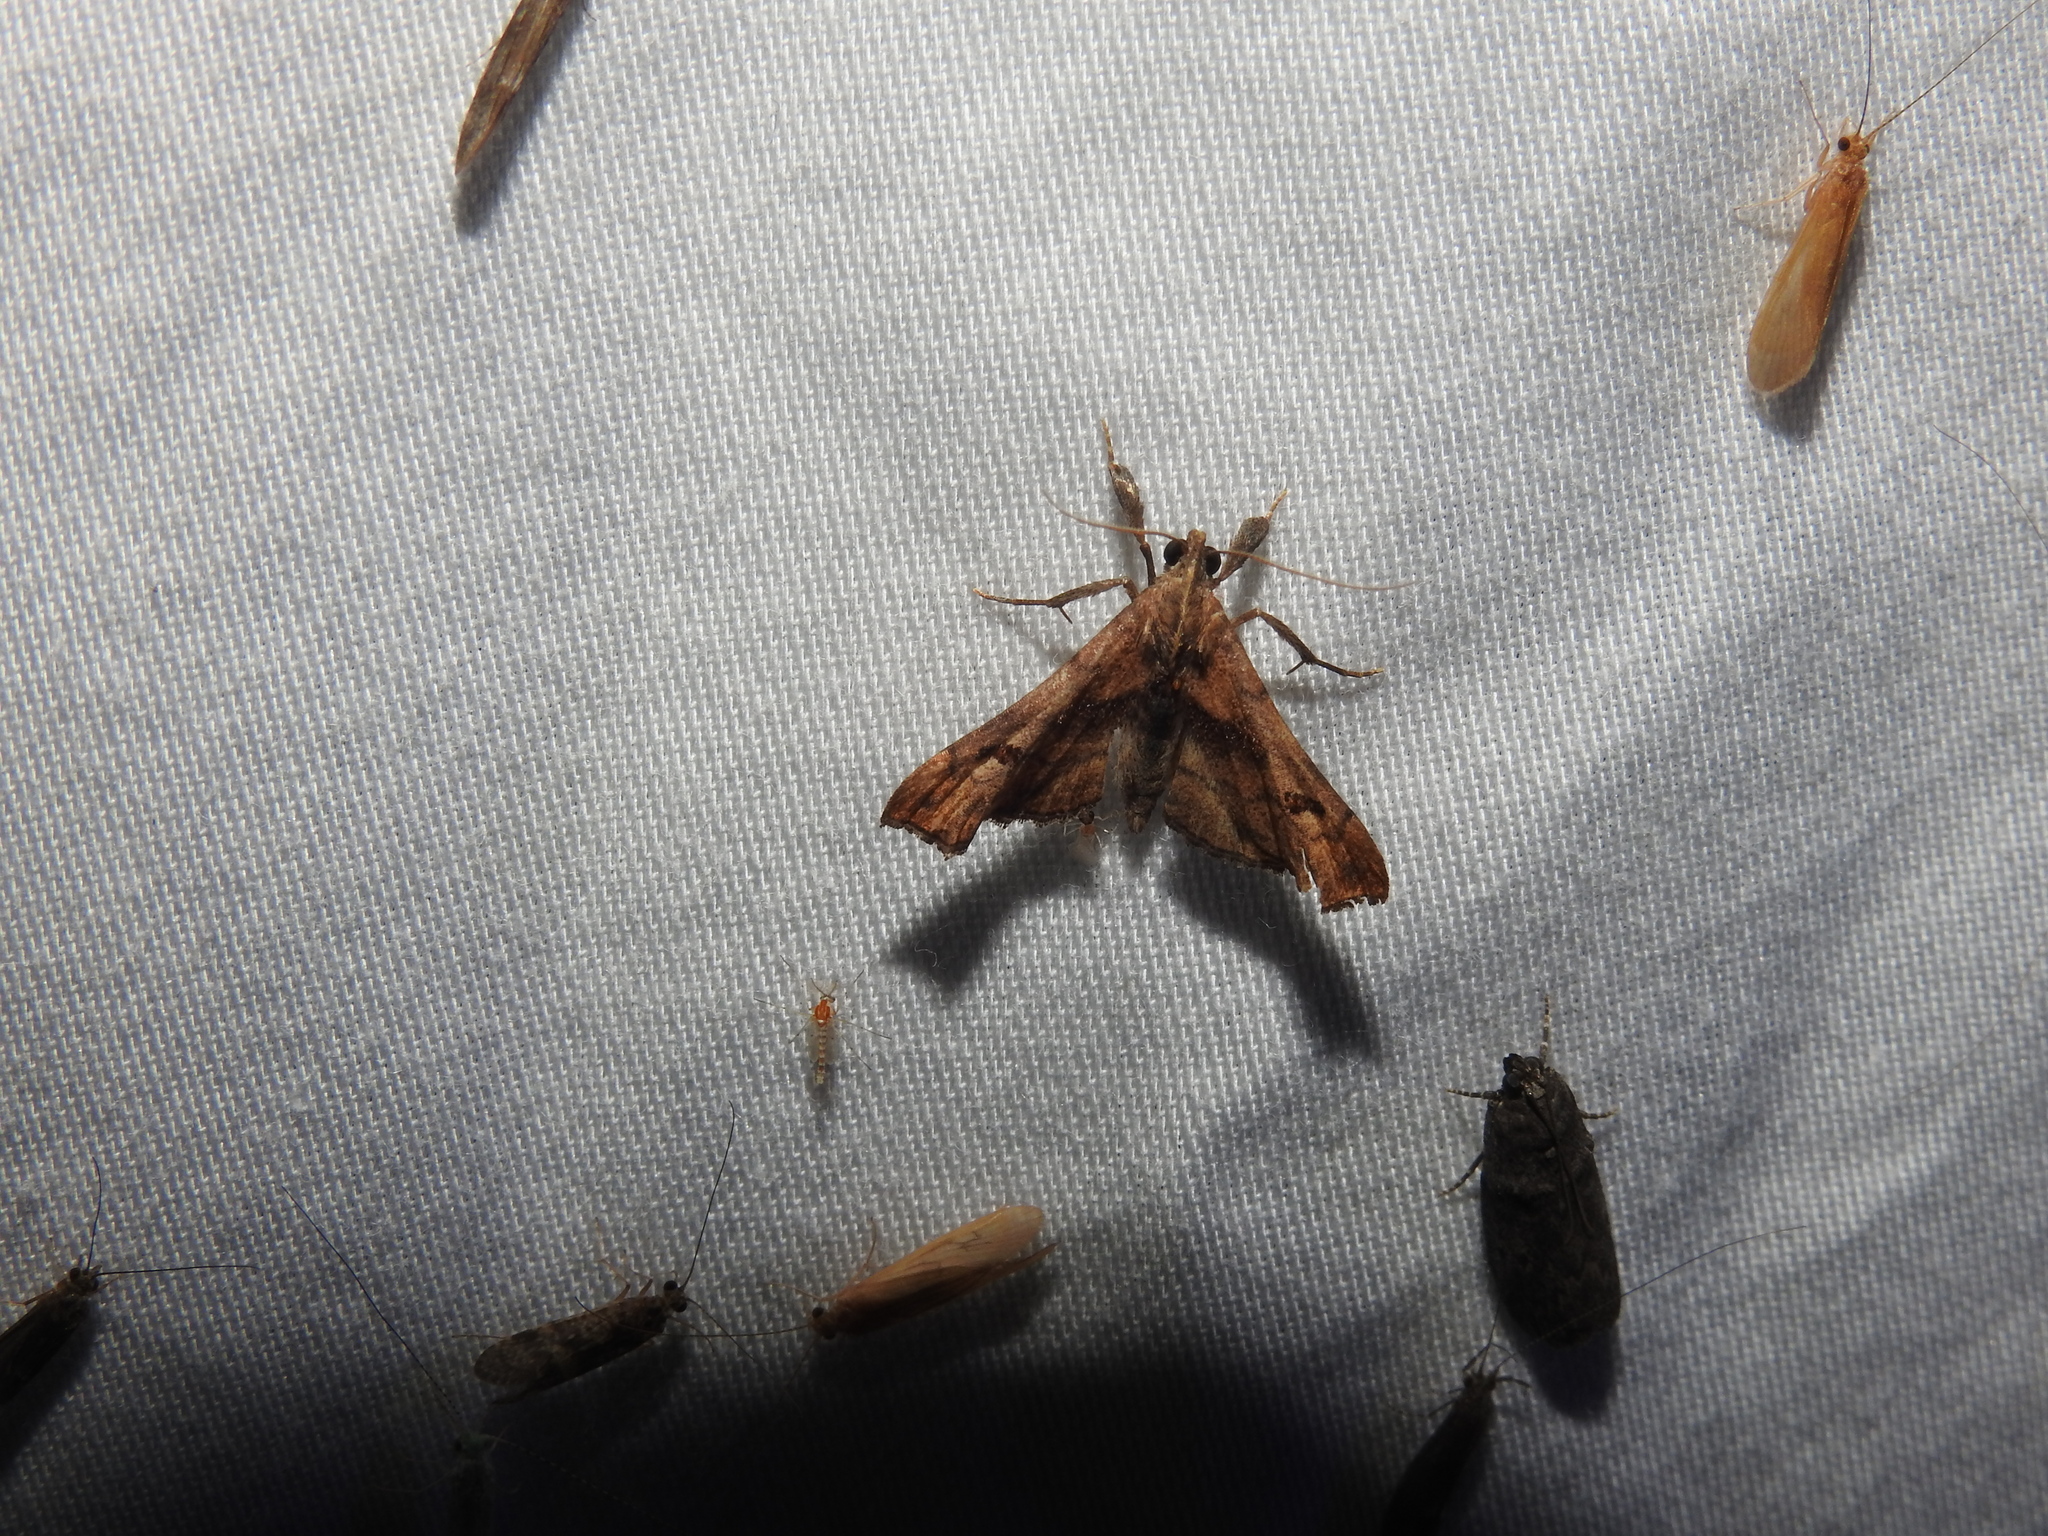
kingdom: Animalia
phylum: Arthropoda
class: Insecta
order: Lepidoptera
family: Erebidae
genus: Palthis
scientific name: Palthis angulalis
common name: Dark-spotted palthis moth
